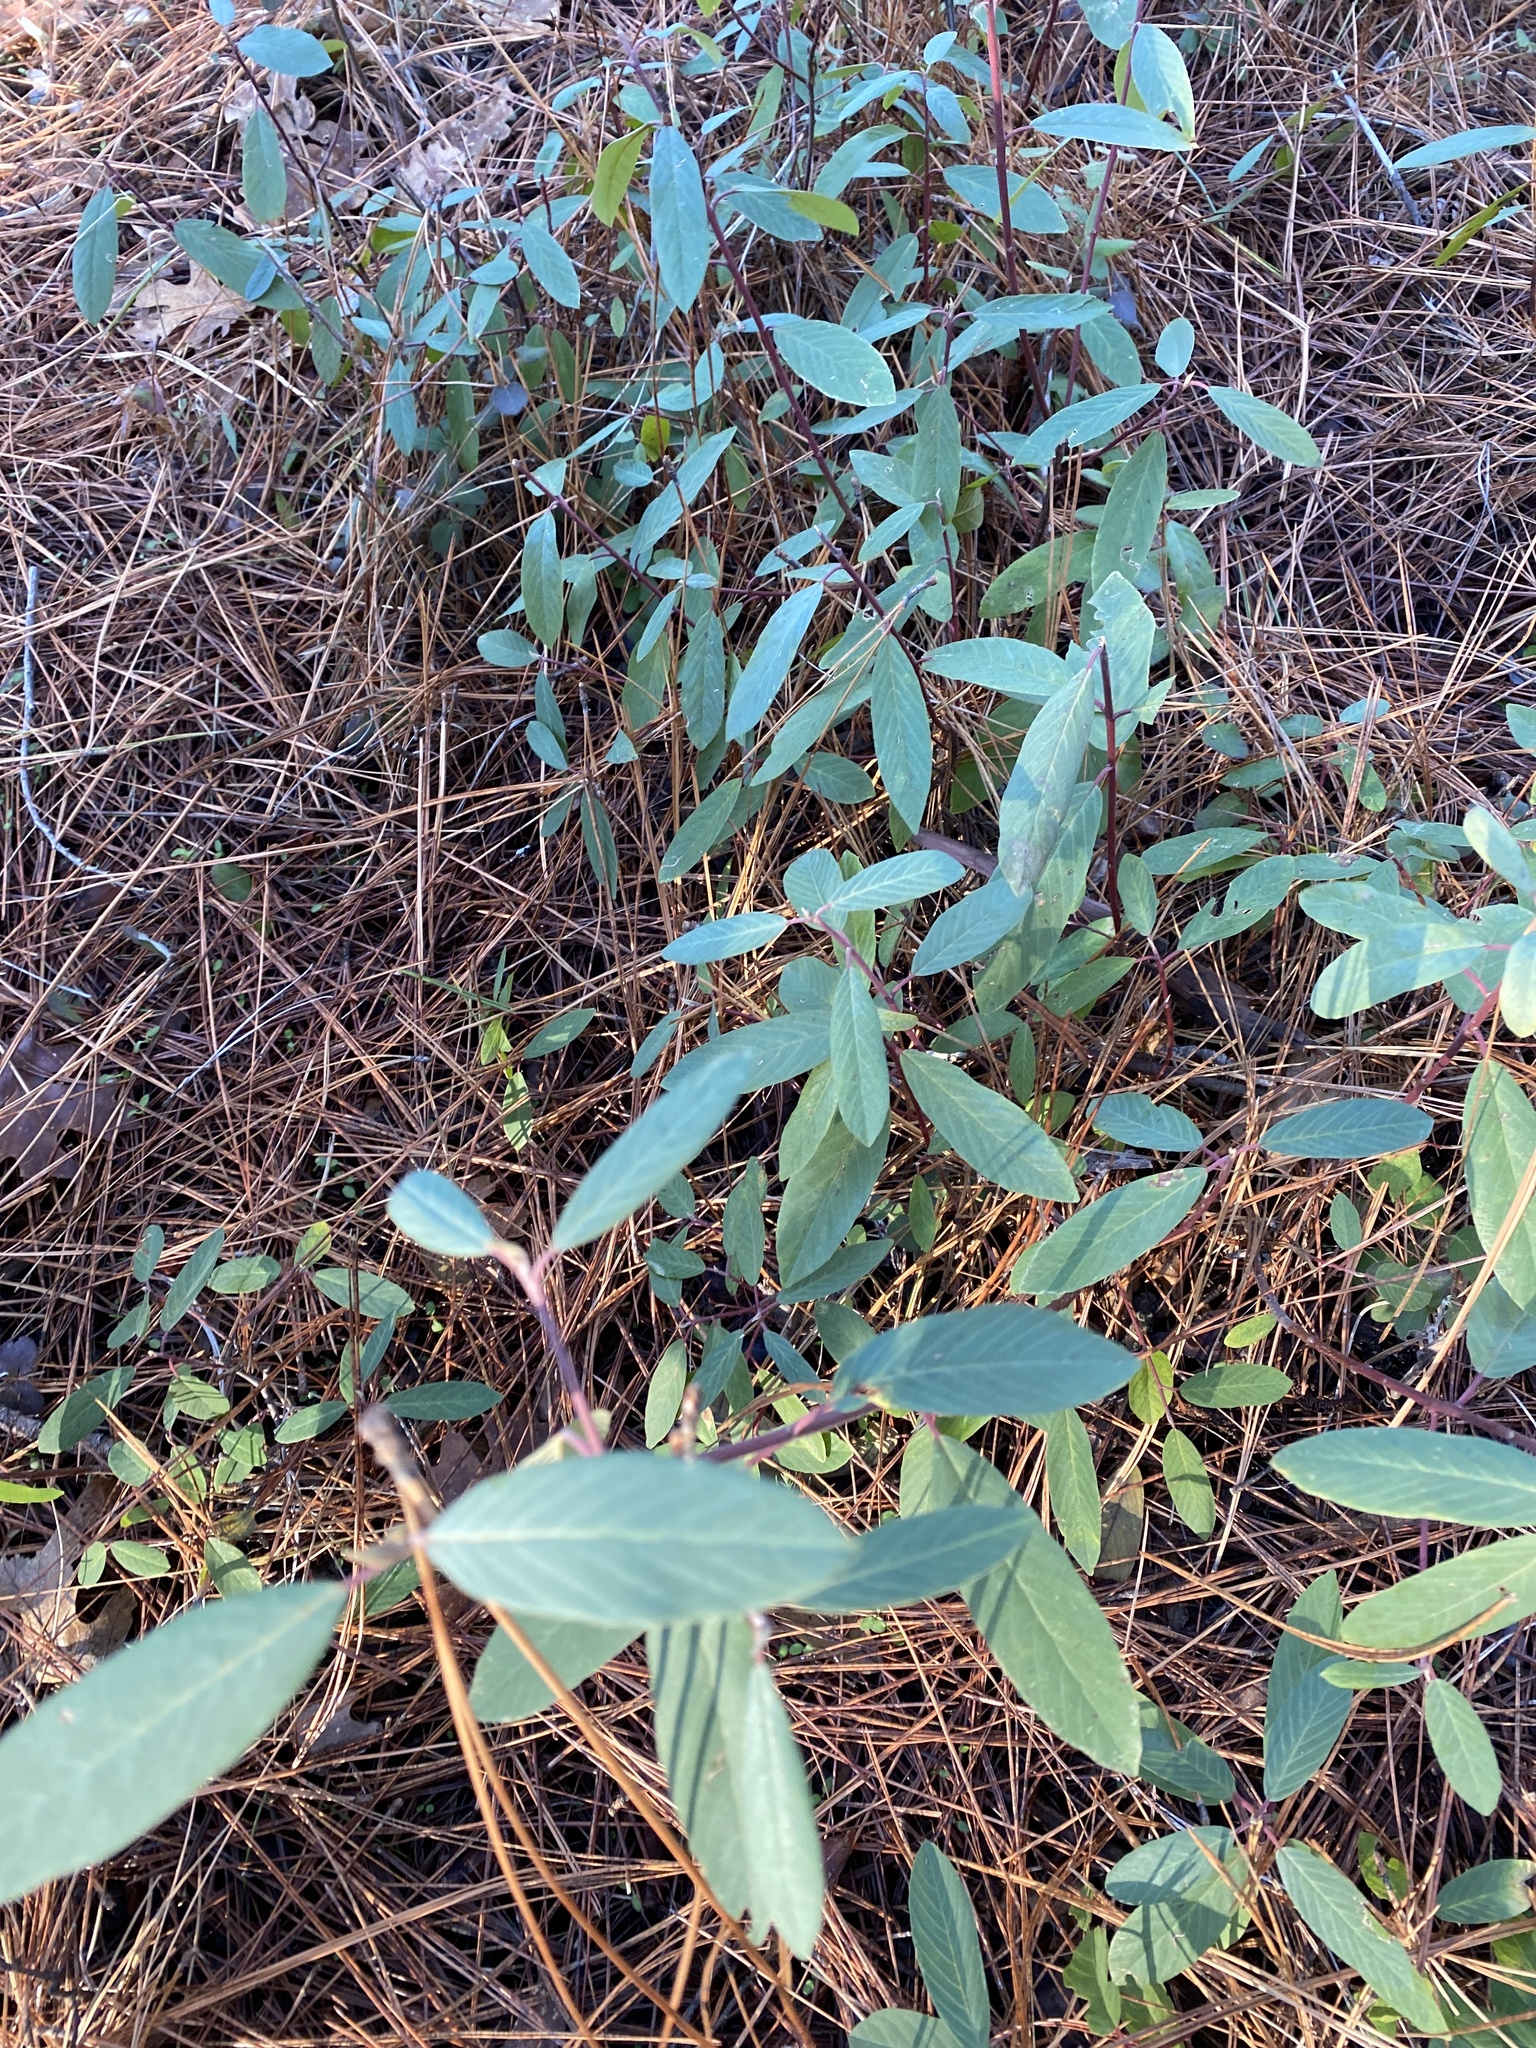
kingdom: Plantae
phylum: Tracheophyta
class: Magnoliopsida
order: Rosales
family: Rhamnaceae
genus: Frangula
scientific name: Frangula californica
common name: California buckthorn
